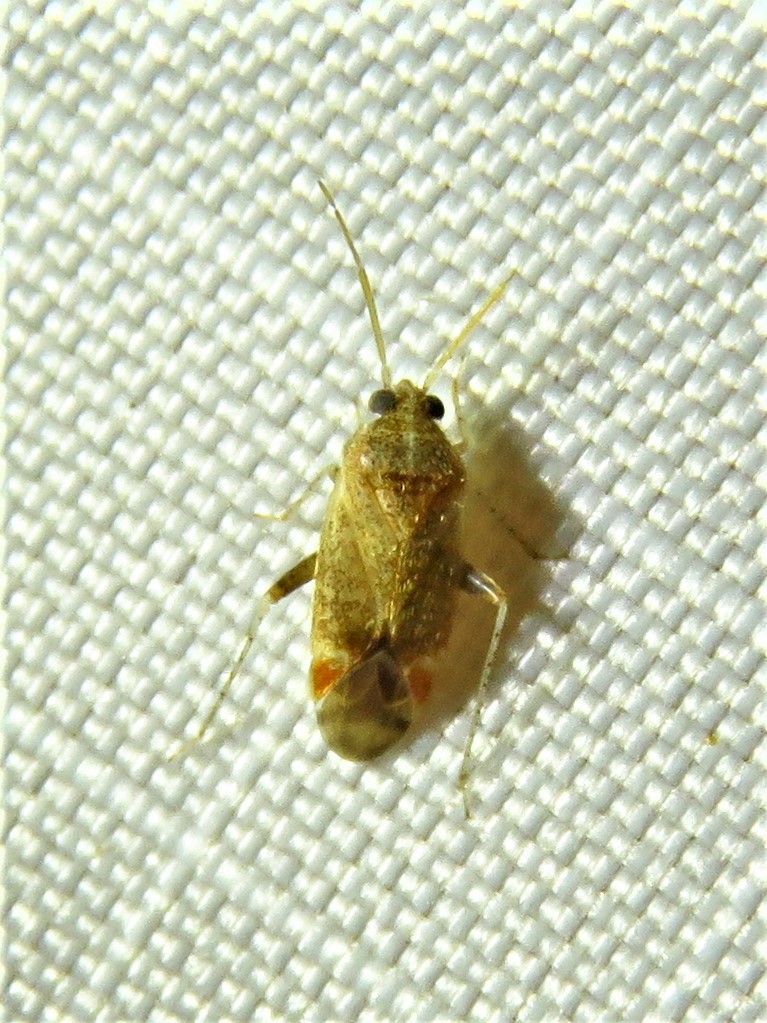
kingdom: Animalia
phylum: Arthropoda
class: Insecta
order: Hemiptera
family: Miridae
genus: Hamatophylus
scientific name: Hamatophylus guttulosus
